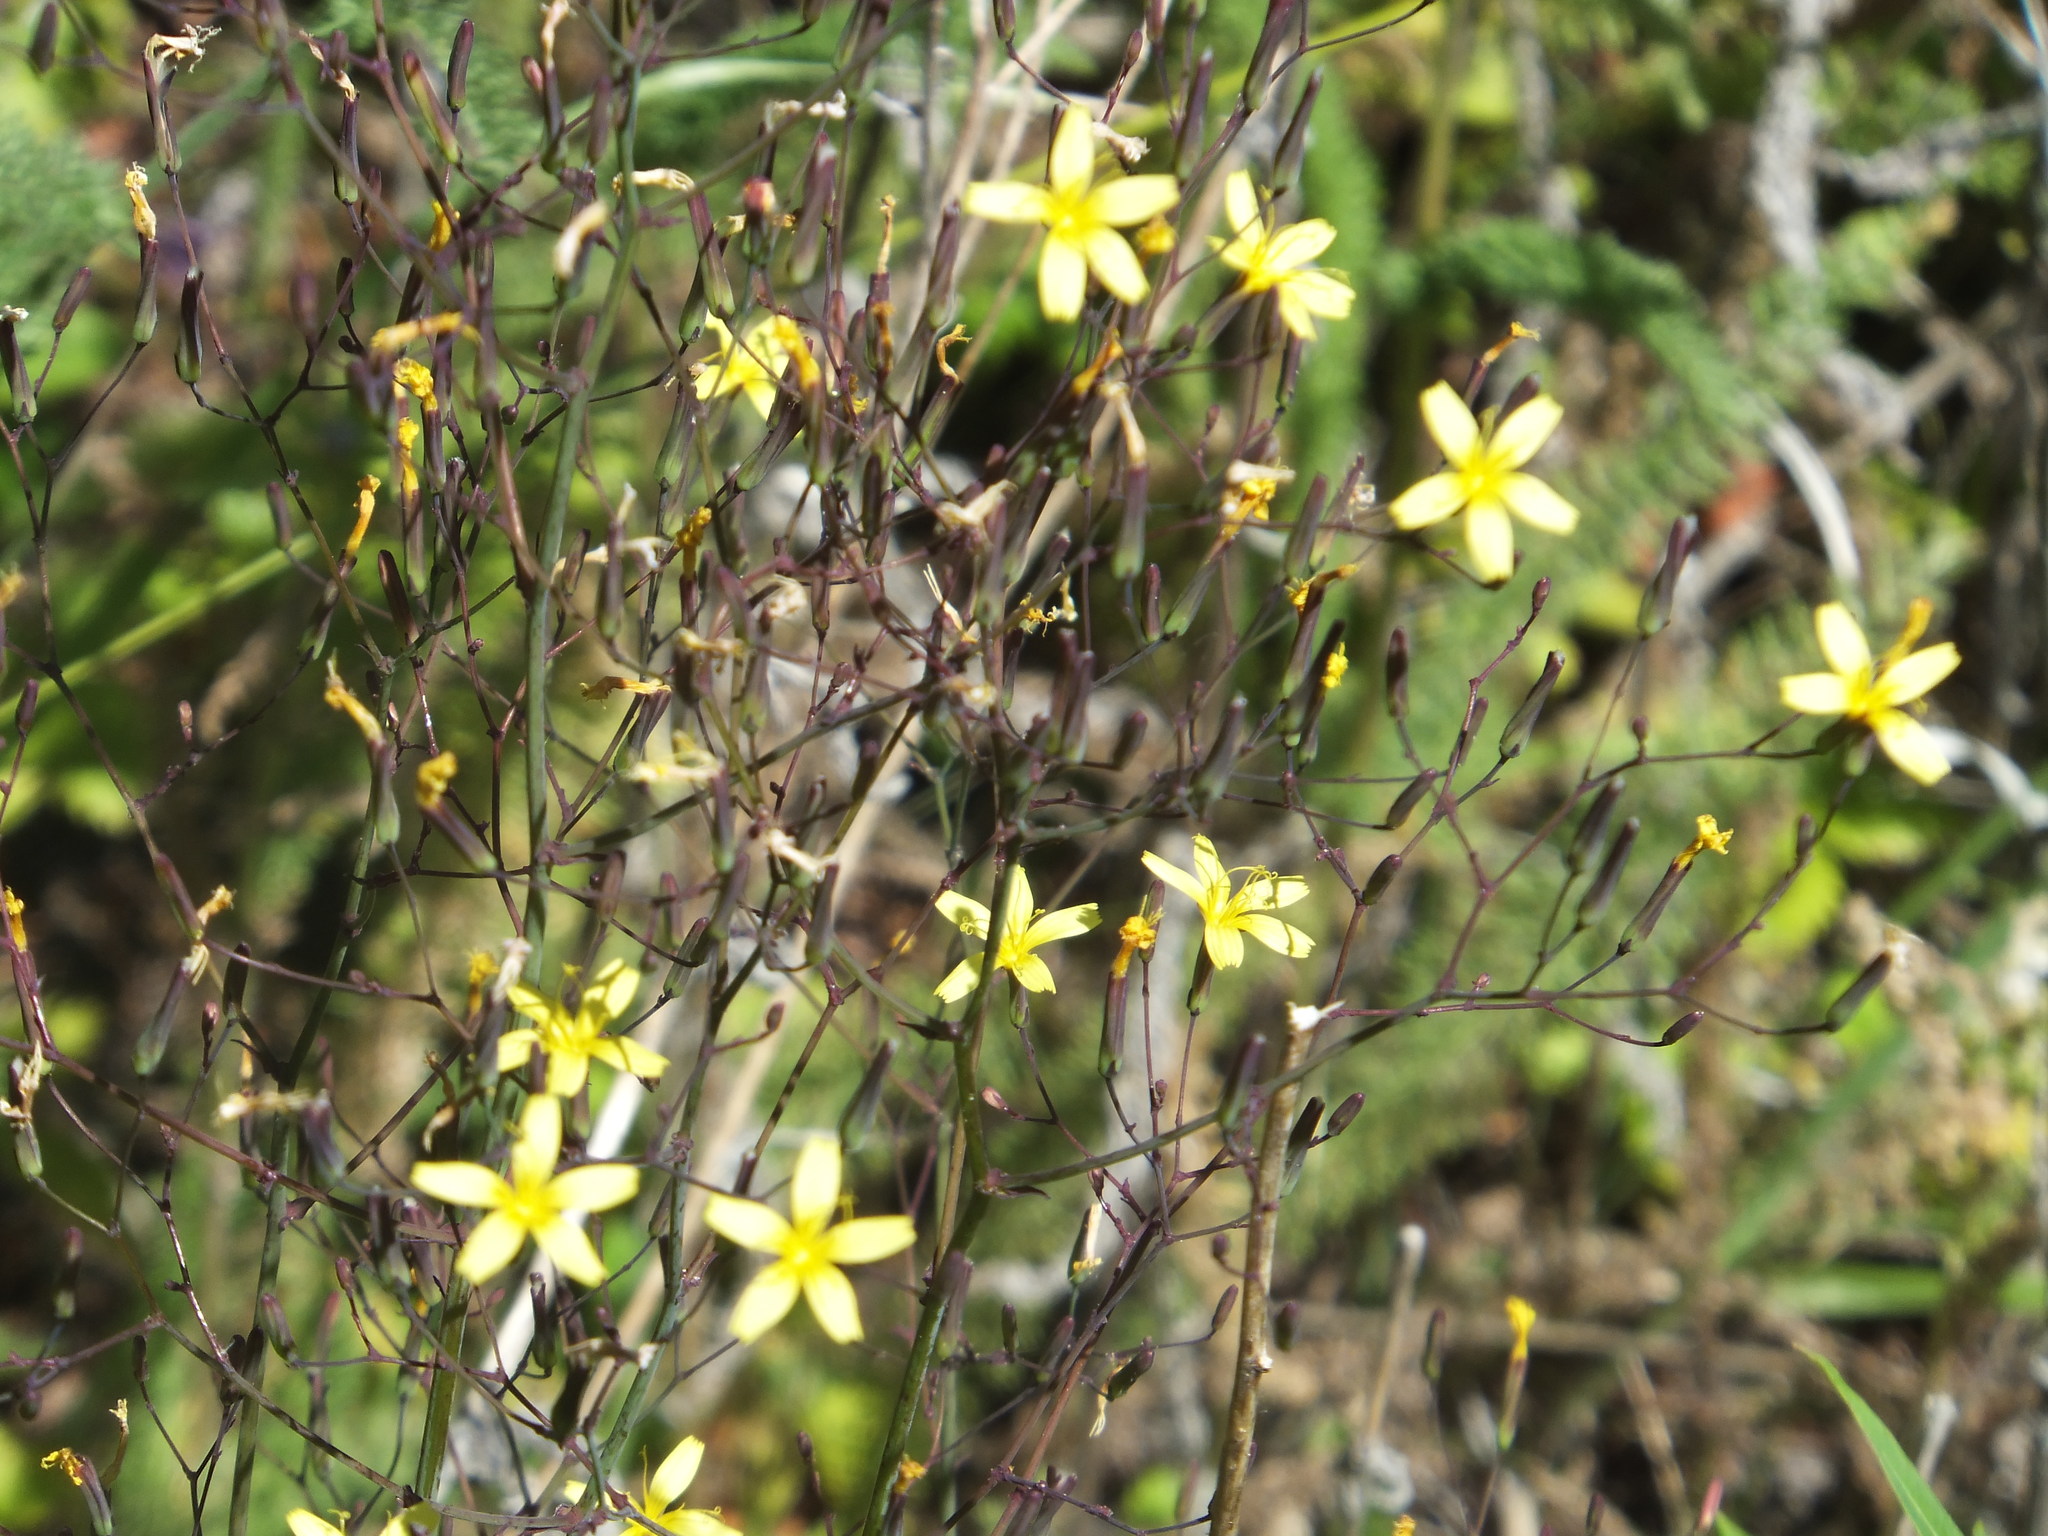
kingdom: Plantae
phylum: Tracheophyta
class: Magnoliopsida
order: Asterales
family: Asteraceae
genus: Mycelis
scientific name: Mycelis muralis
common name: Wall lettuce
